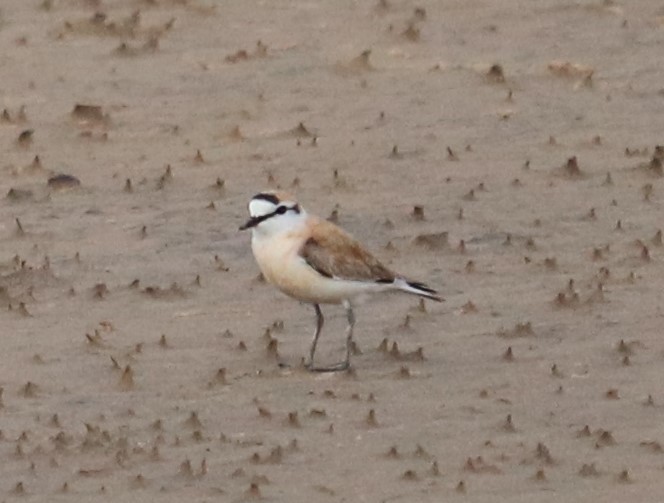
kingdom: Animalia
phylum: Chordata
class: Aves
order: Charadriiformes
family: Charadriidae
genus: Anarhynchus
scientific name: Anarhynchus
